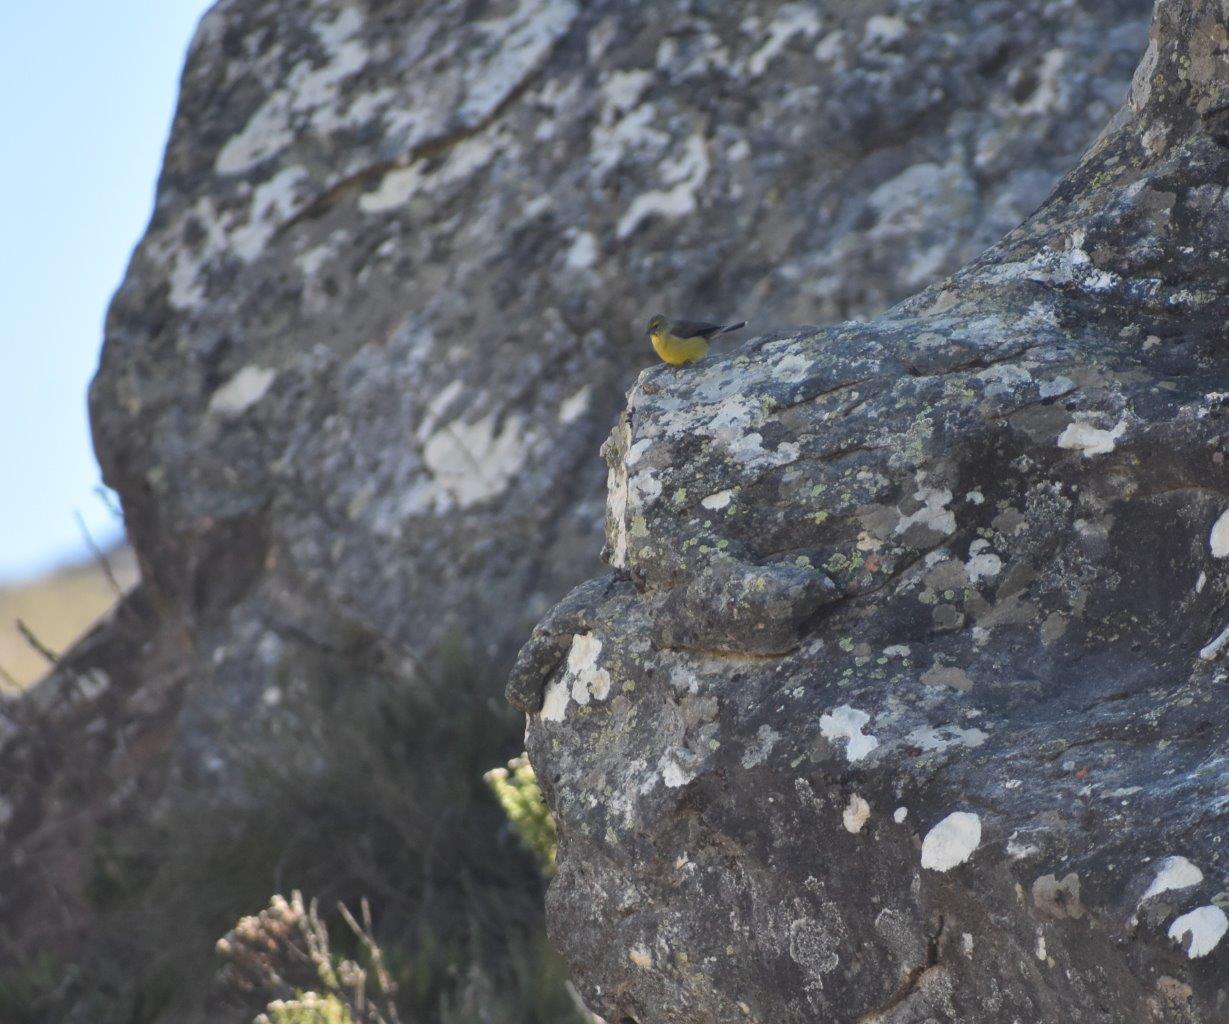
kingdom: Animalia
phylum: Chordata
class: Aves
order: Passeriformes
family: Fringillidae
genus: Crithagra
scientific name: Crithagra totta
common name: Cape siskin
